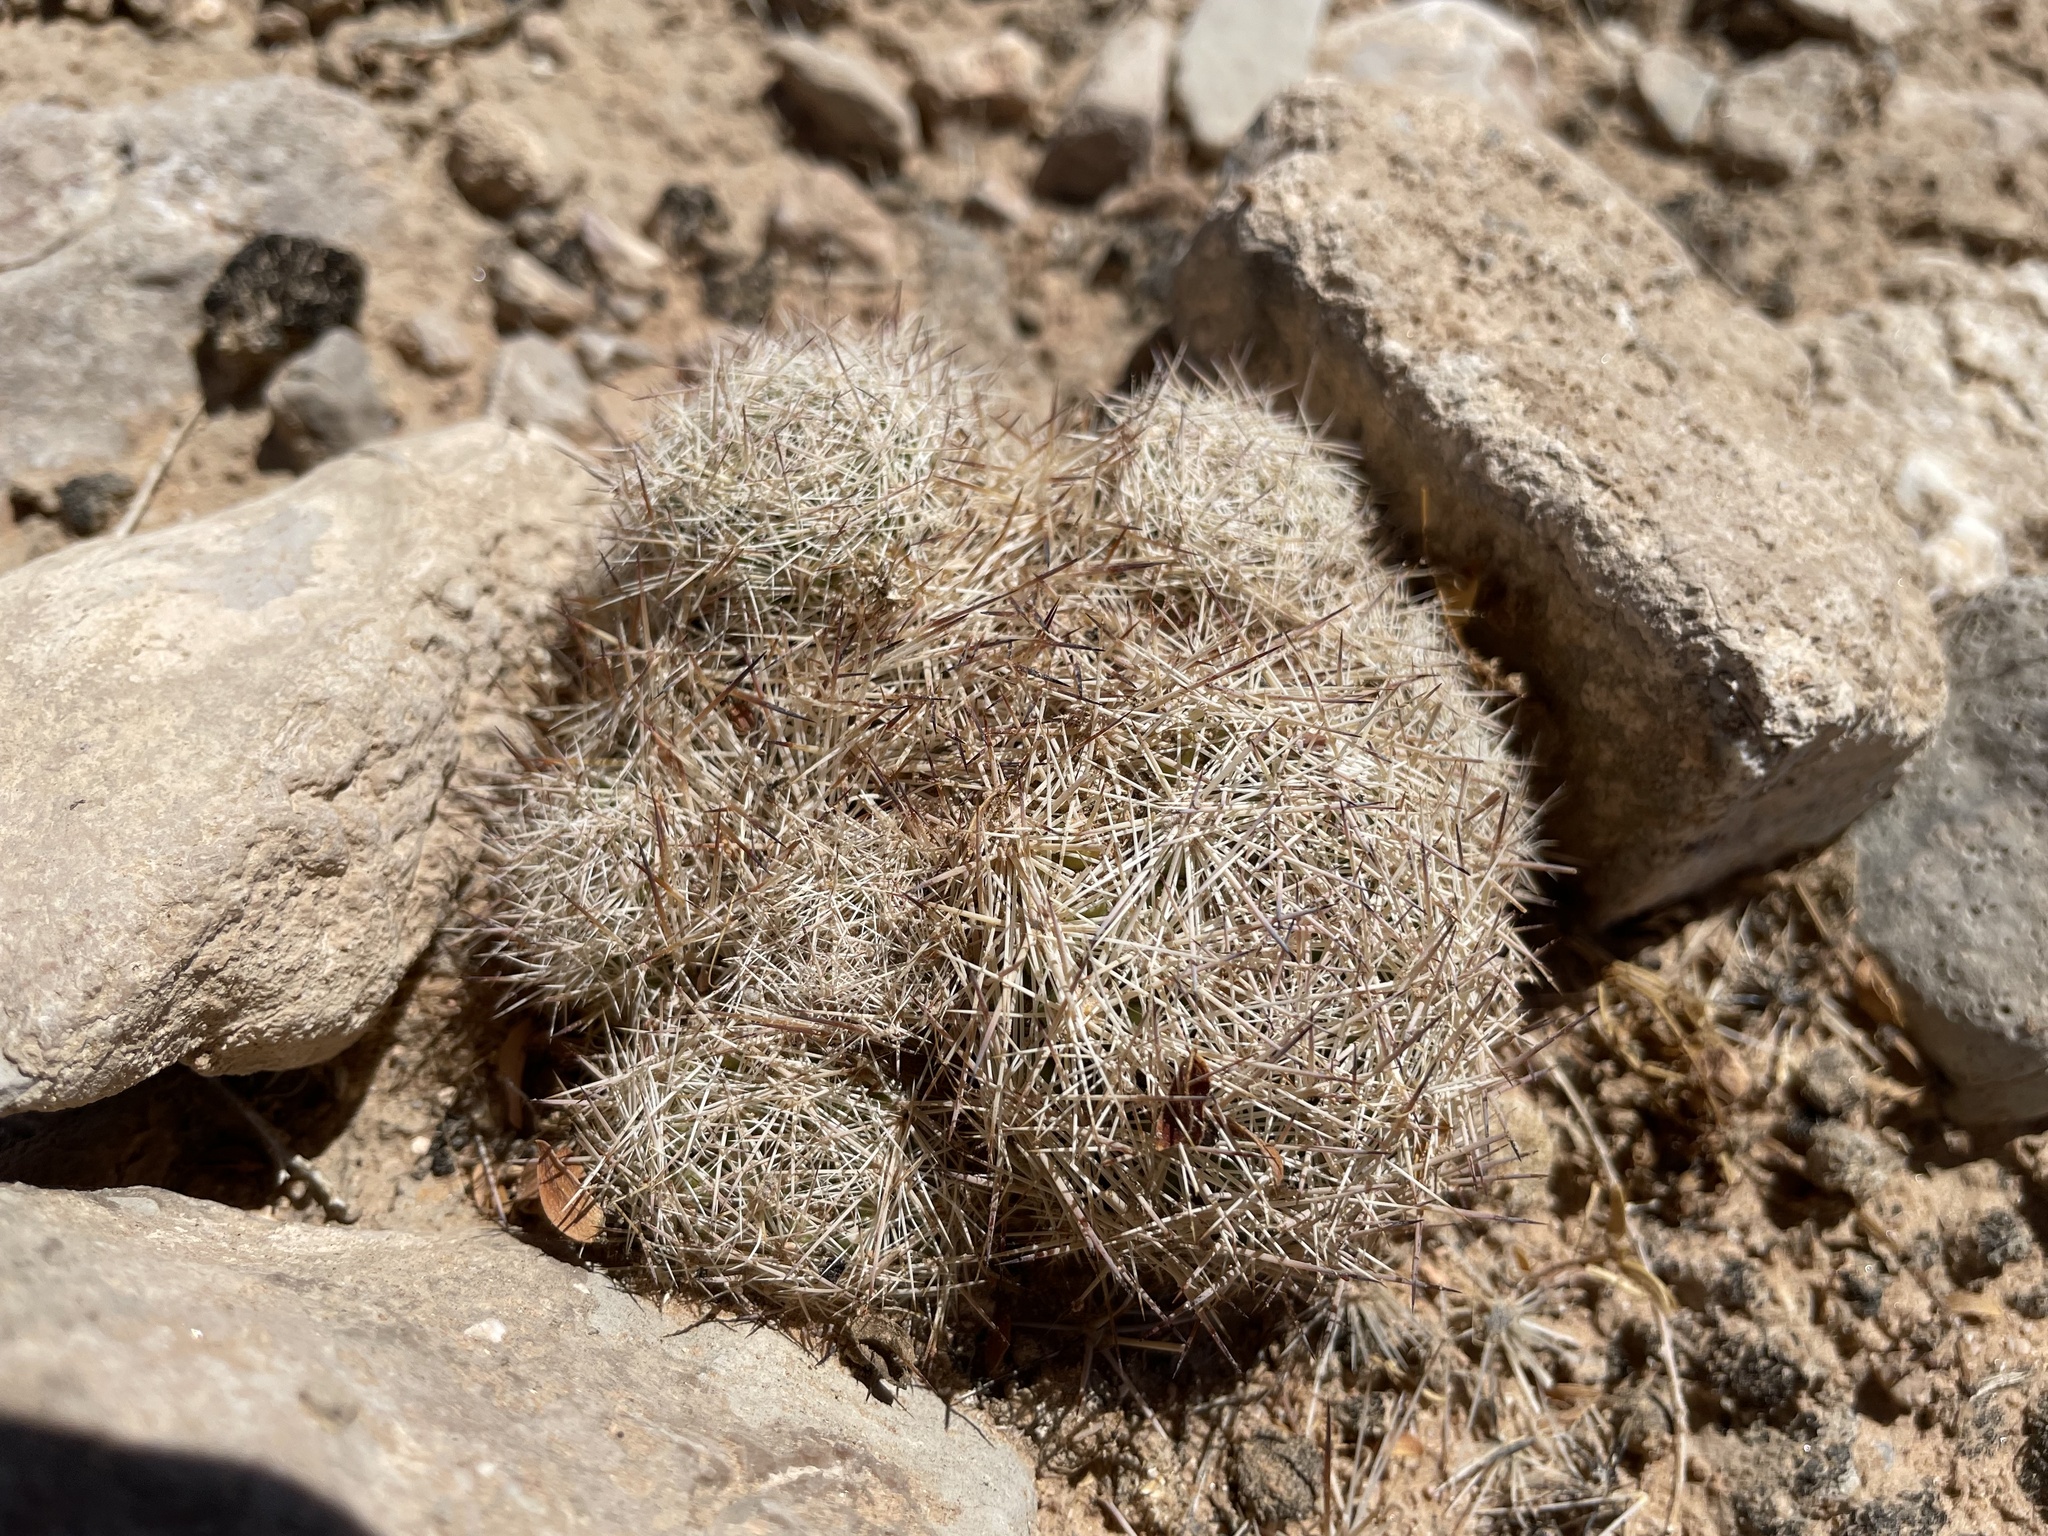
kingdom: Plantae
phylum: Tracheophyta
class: Magnoliopsida
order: Caryophyllales
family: Cactaceae
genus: Pelecyphora
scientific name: Pelecyphora dasyacantha
